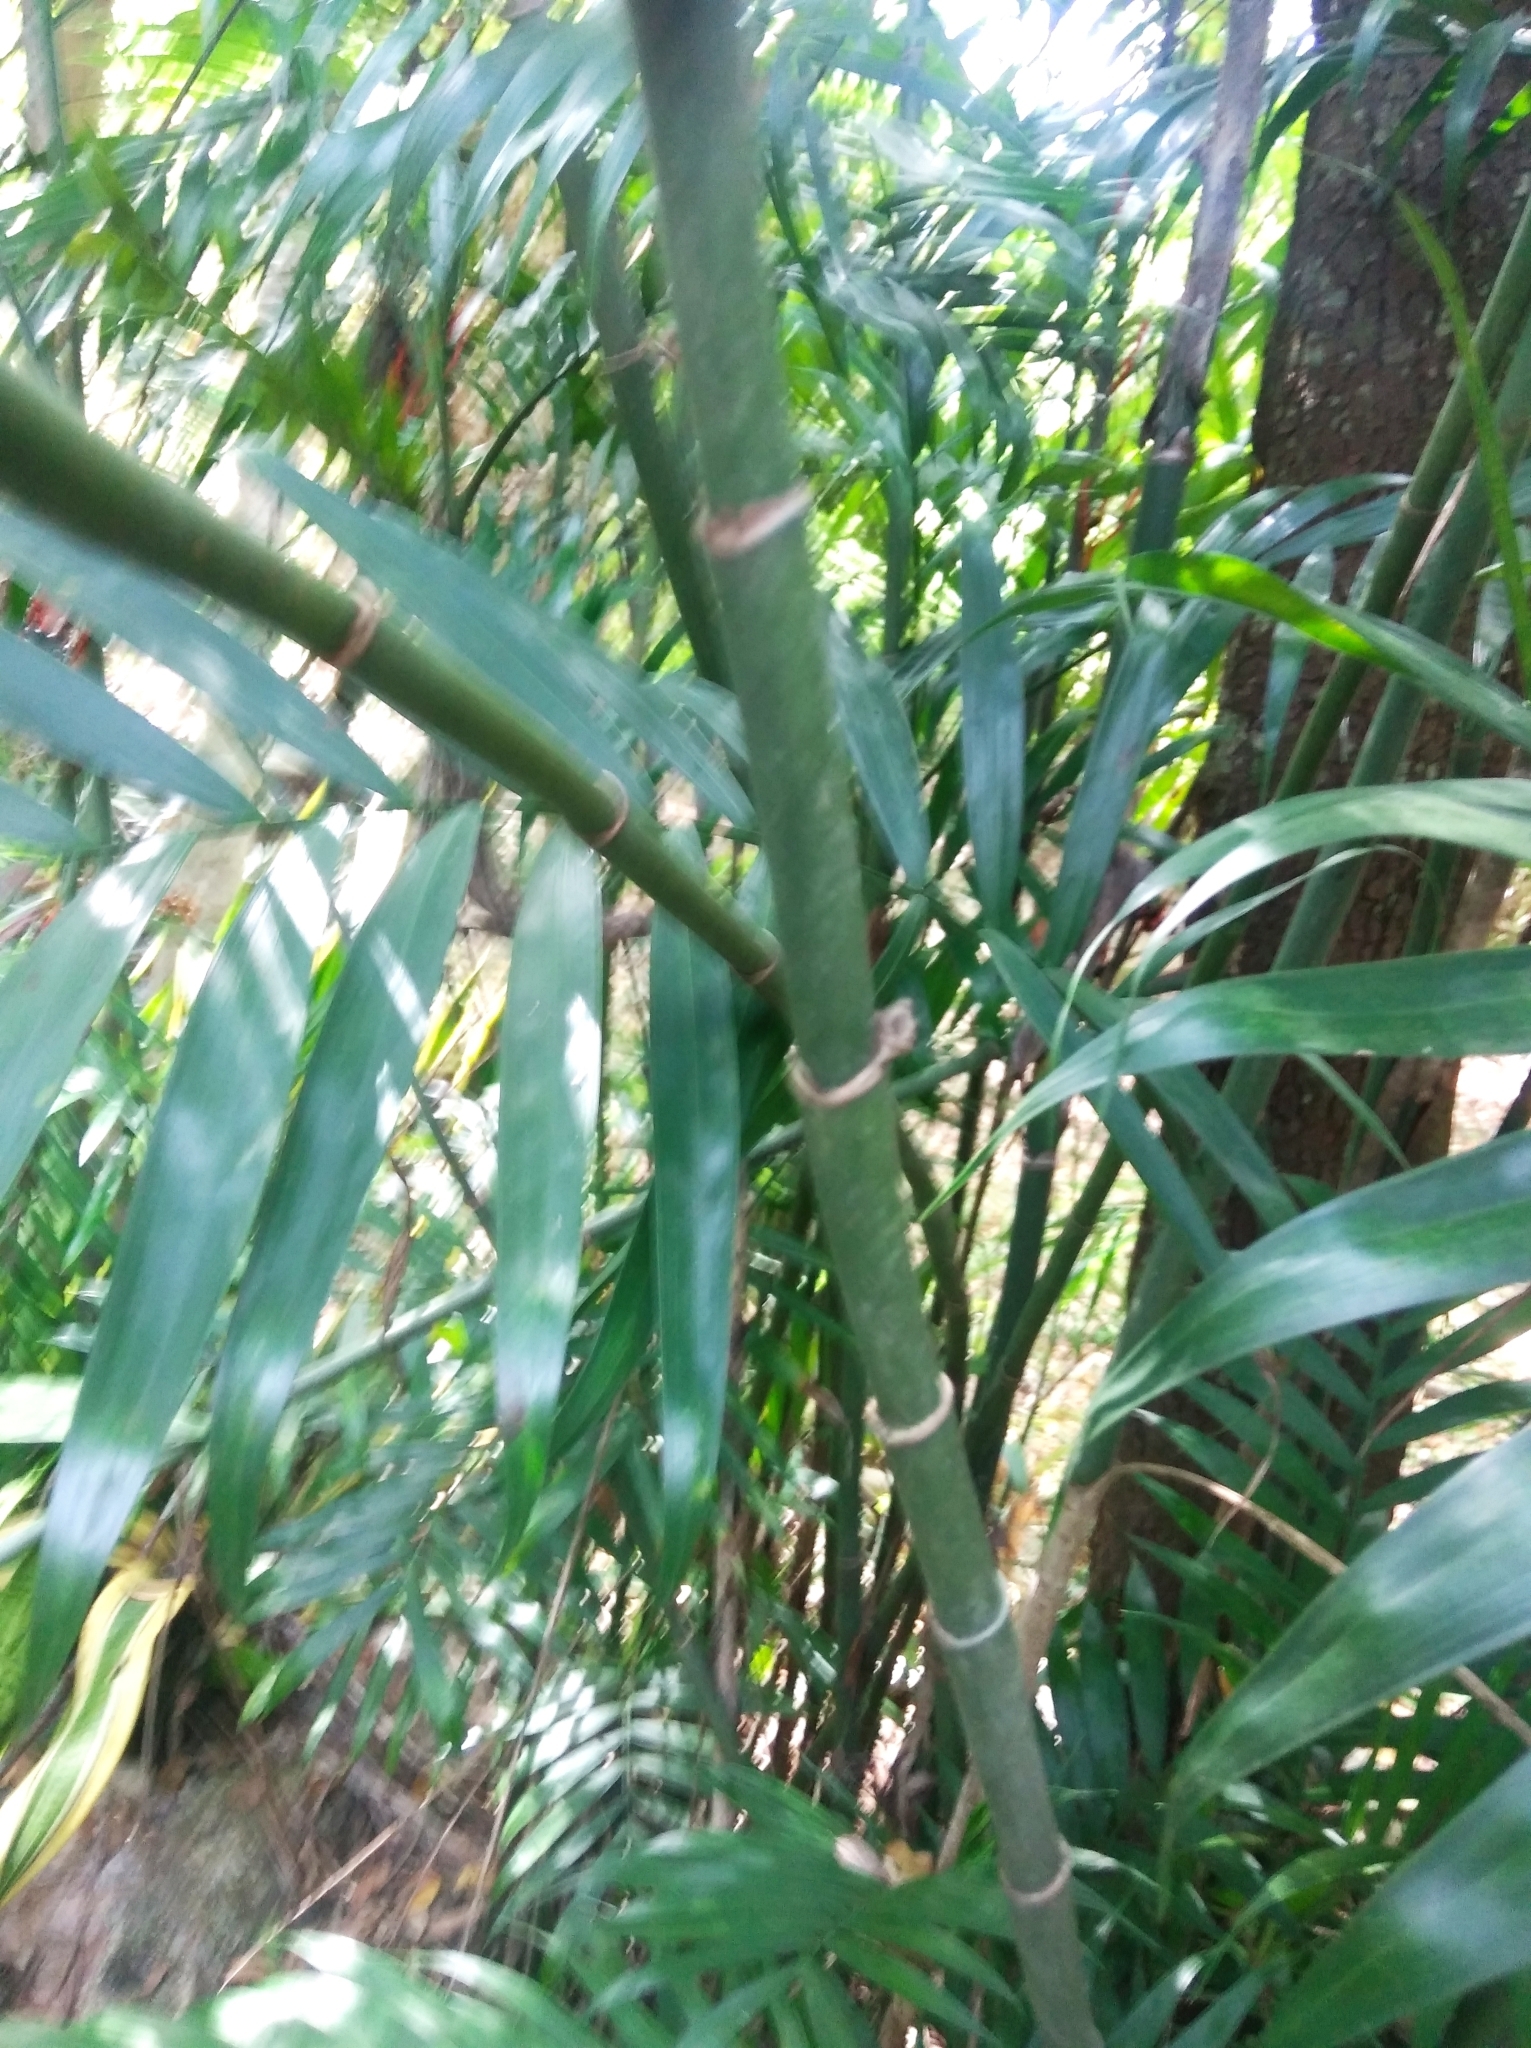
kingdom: Plantae
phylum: Tracheophyta
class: Liliopsida
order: Arecales
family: Arecaceae
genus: Chamaedorea
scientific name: Chamaedorea seifrizii
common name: Seifriz's chamaedorea
